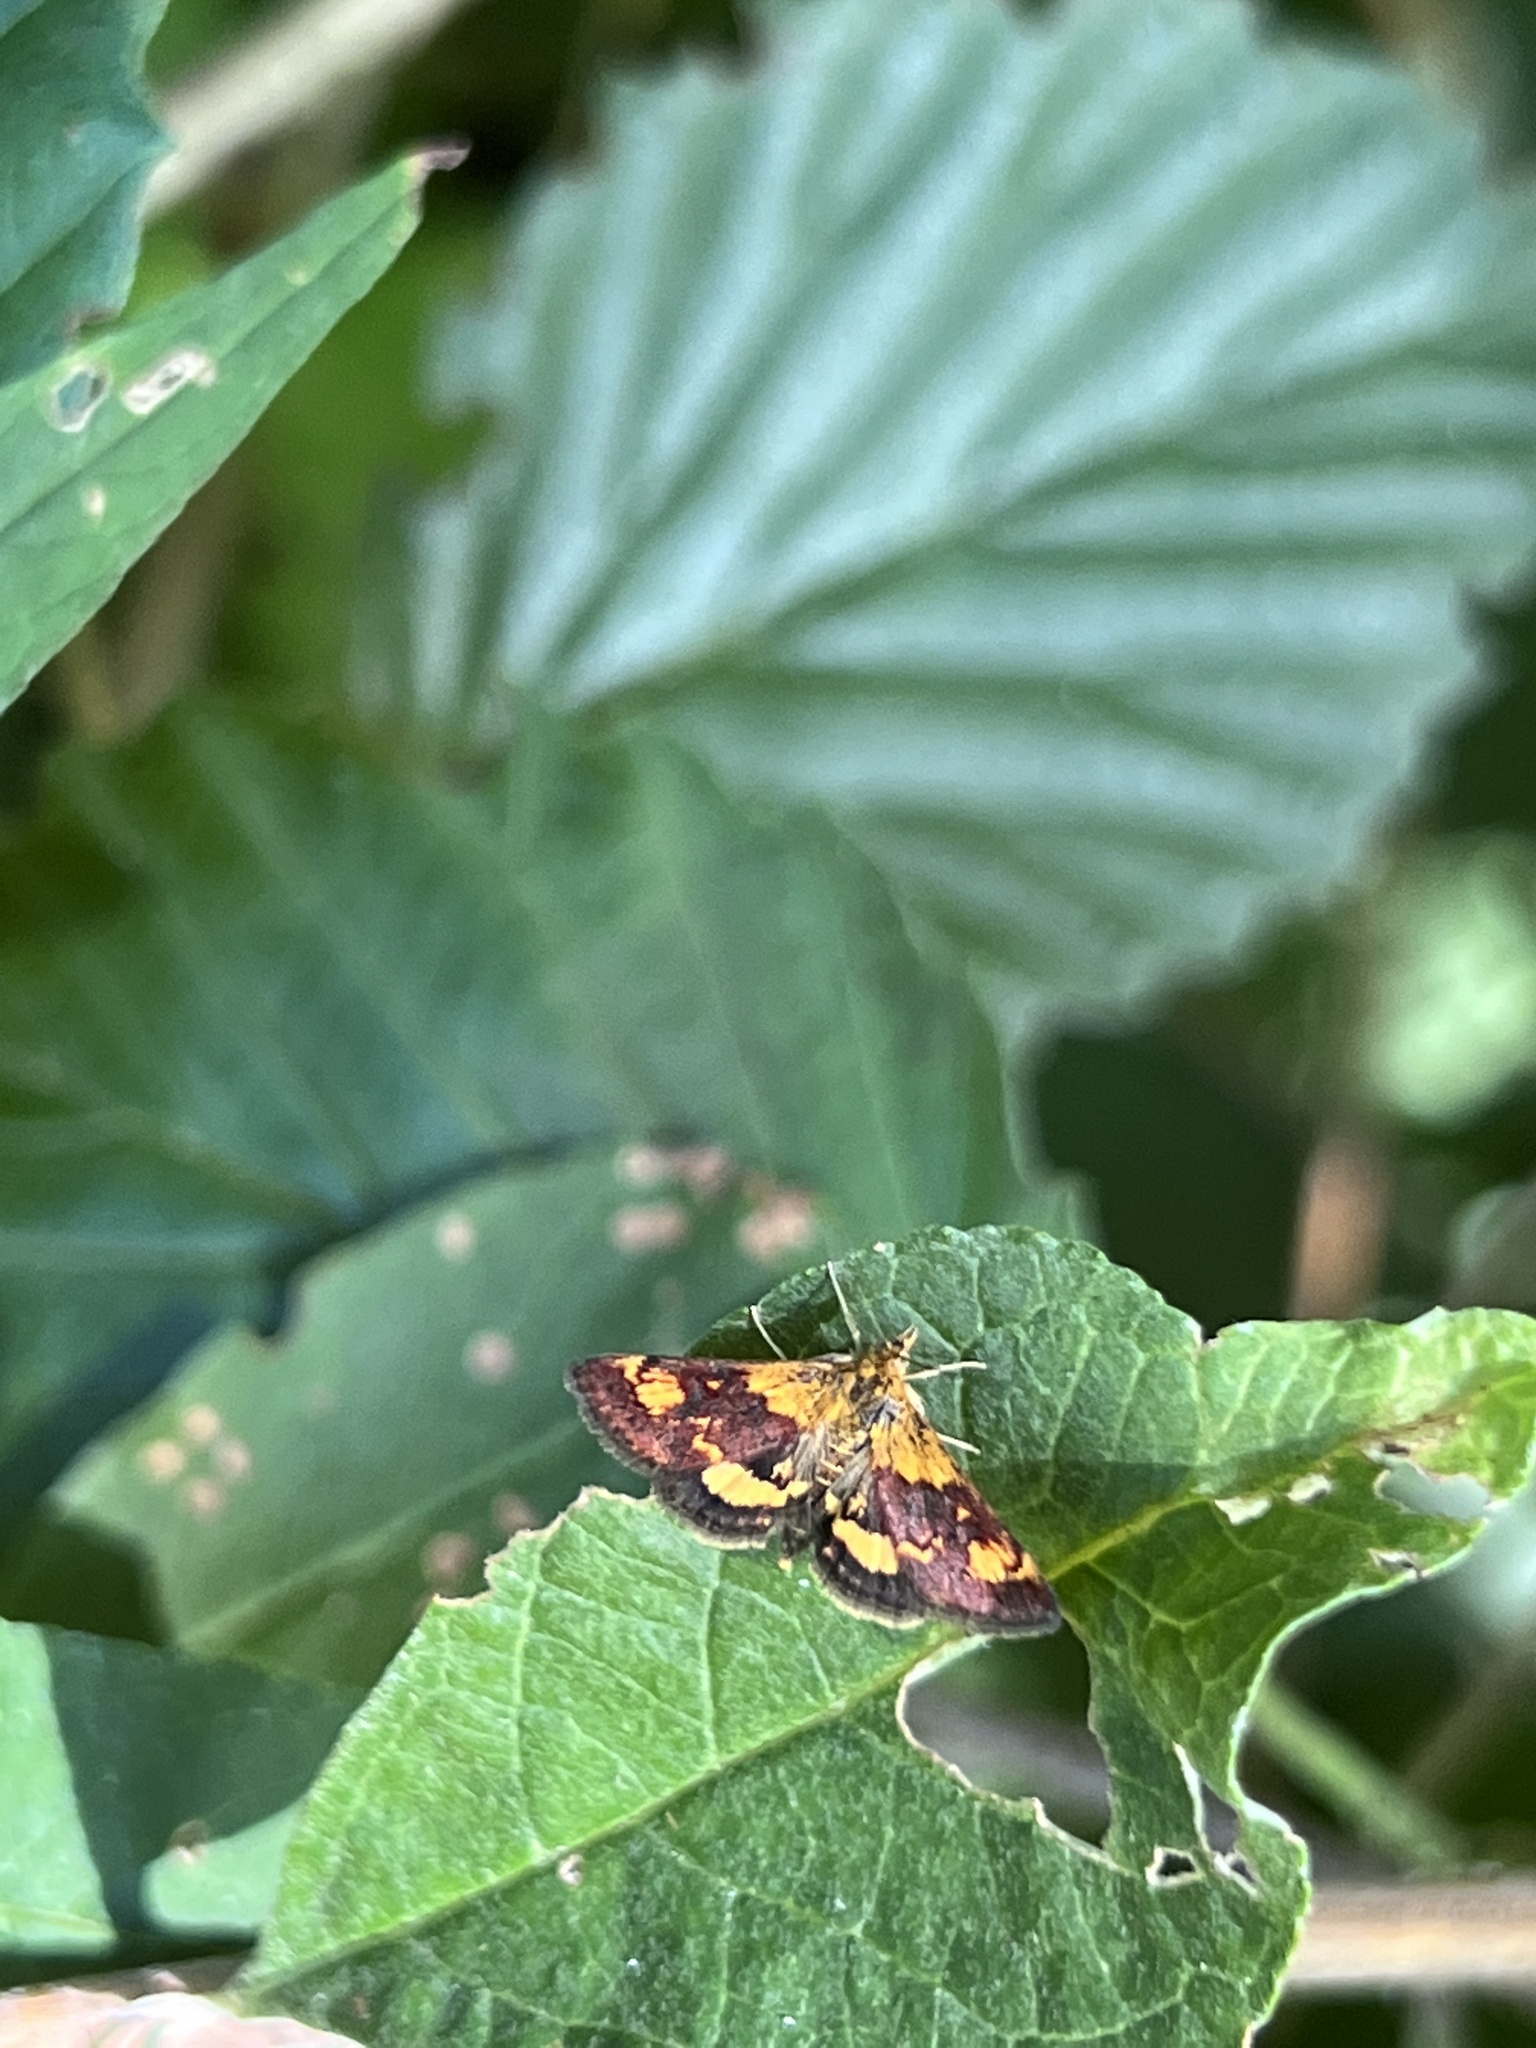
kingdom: Animalia
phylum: Arthropoda
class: Insecta
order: Lepidoptera
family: Crambidae
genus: Pyrausta
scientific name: Pyrausta orphisalis
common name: Orange mint moth
